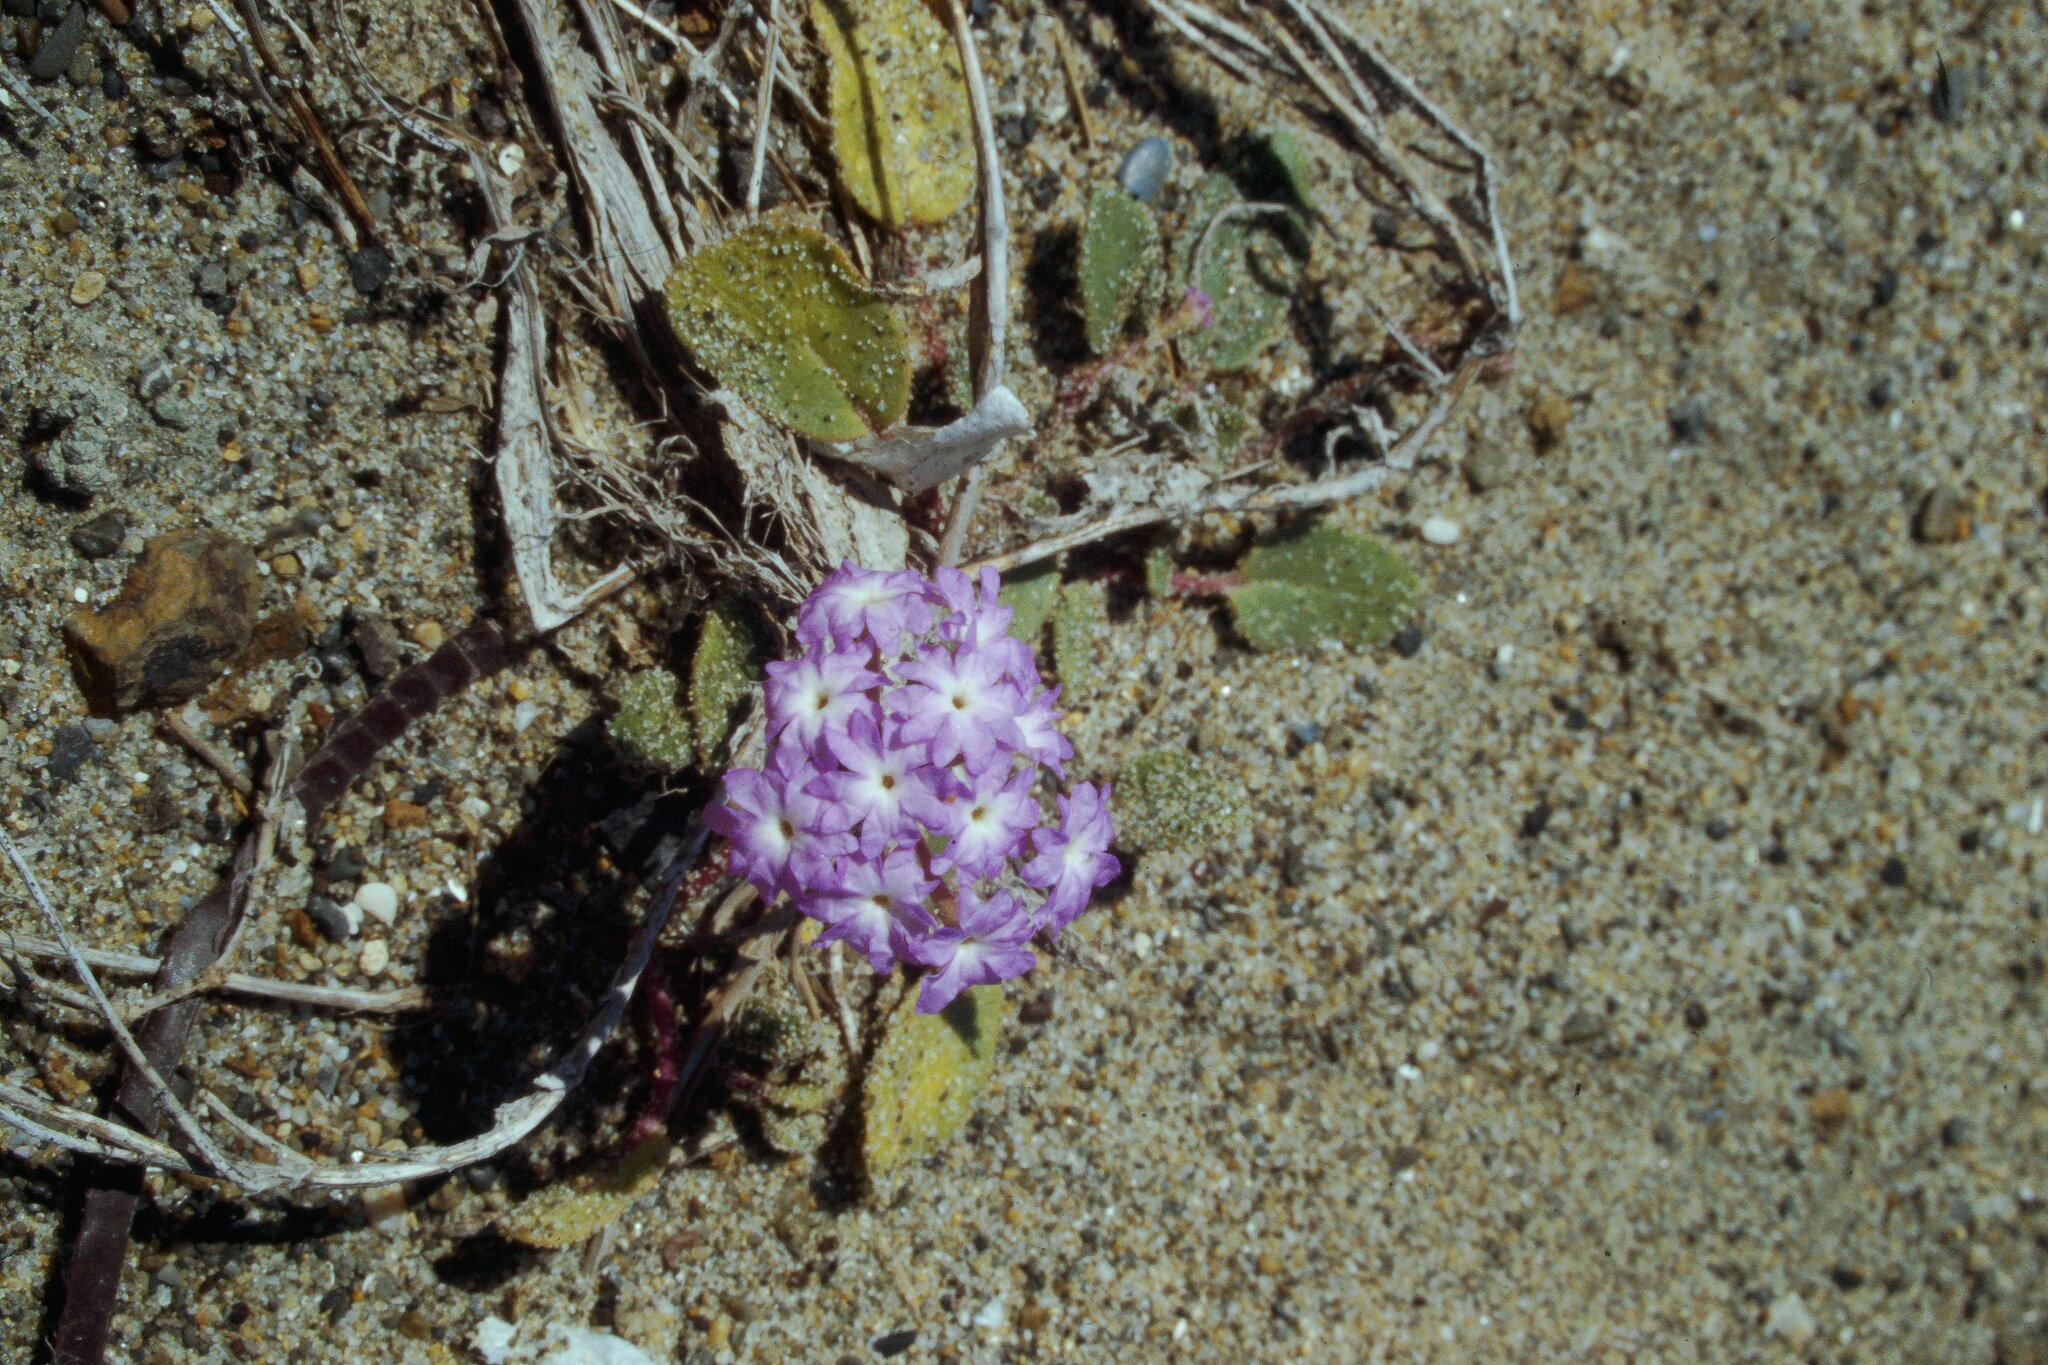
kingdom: Plantae
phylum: Tracheophyta
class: Magnoliopsida
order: Caryophyllales
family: Nyctaginaceae
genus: Abronia
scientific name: Abronia umbellata
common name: Sand-verbena
